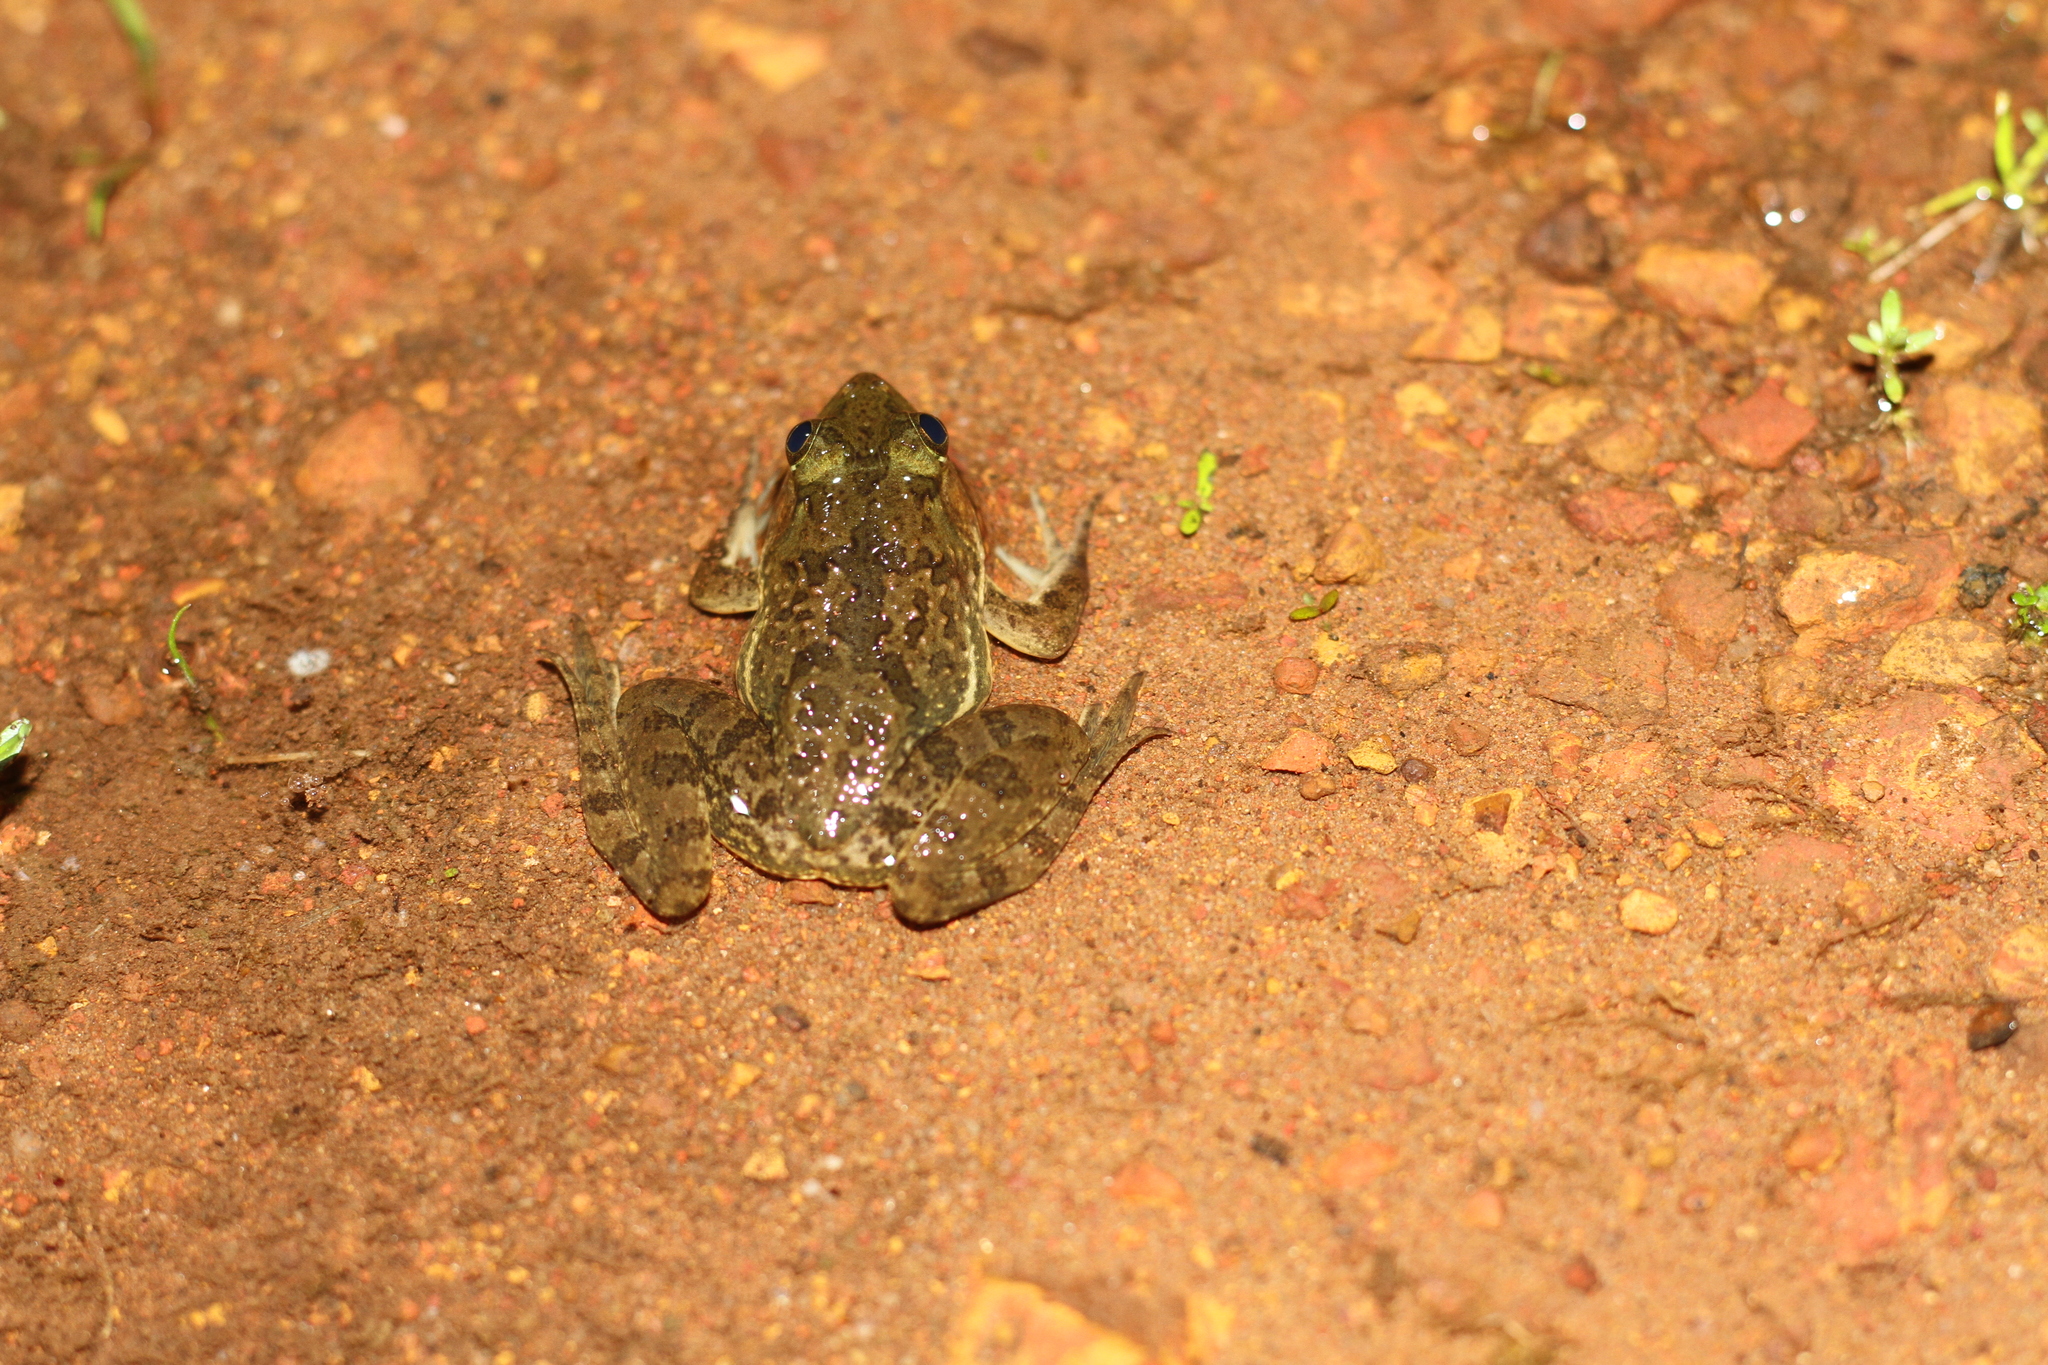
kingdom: Animalia
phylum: Chordata
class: Amphibia
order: Anura
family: Dicroglossidae
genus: Euphlyctis
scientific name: Euphlyctis cyanophlyctis
